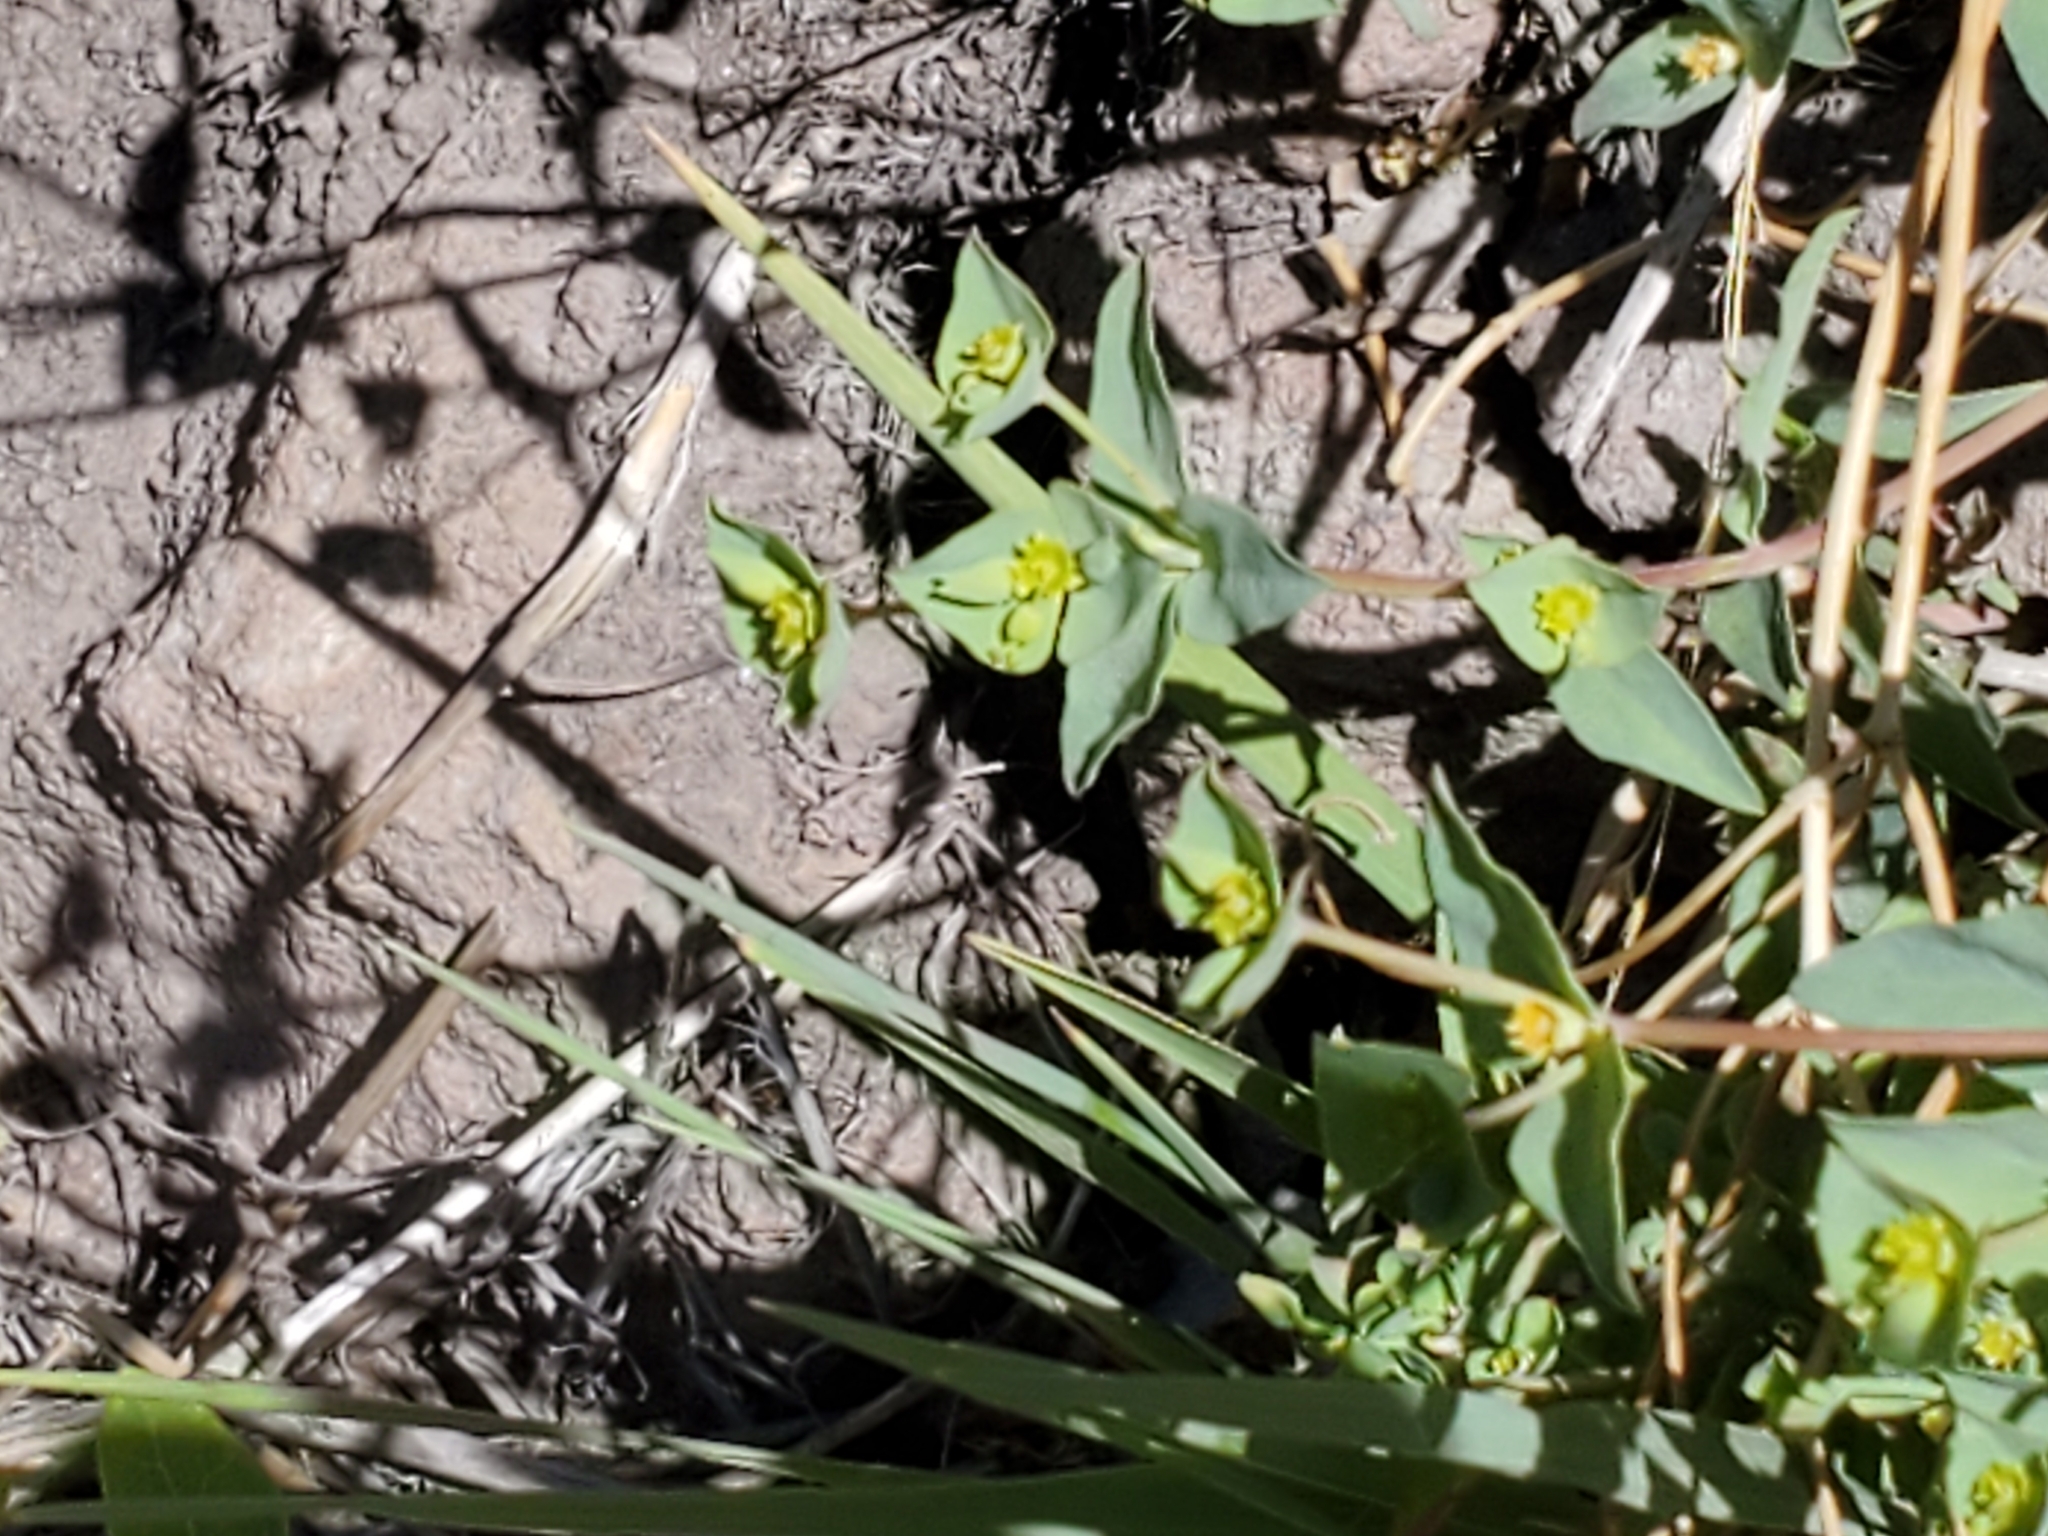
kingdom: Plantae
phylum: Tracheophyta
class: Magnoliopsida
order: Malpighiales
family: Euphorbiaceae
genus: Euphorbia
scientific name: Euphorbia brachycera
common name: Shorthorn spurge
